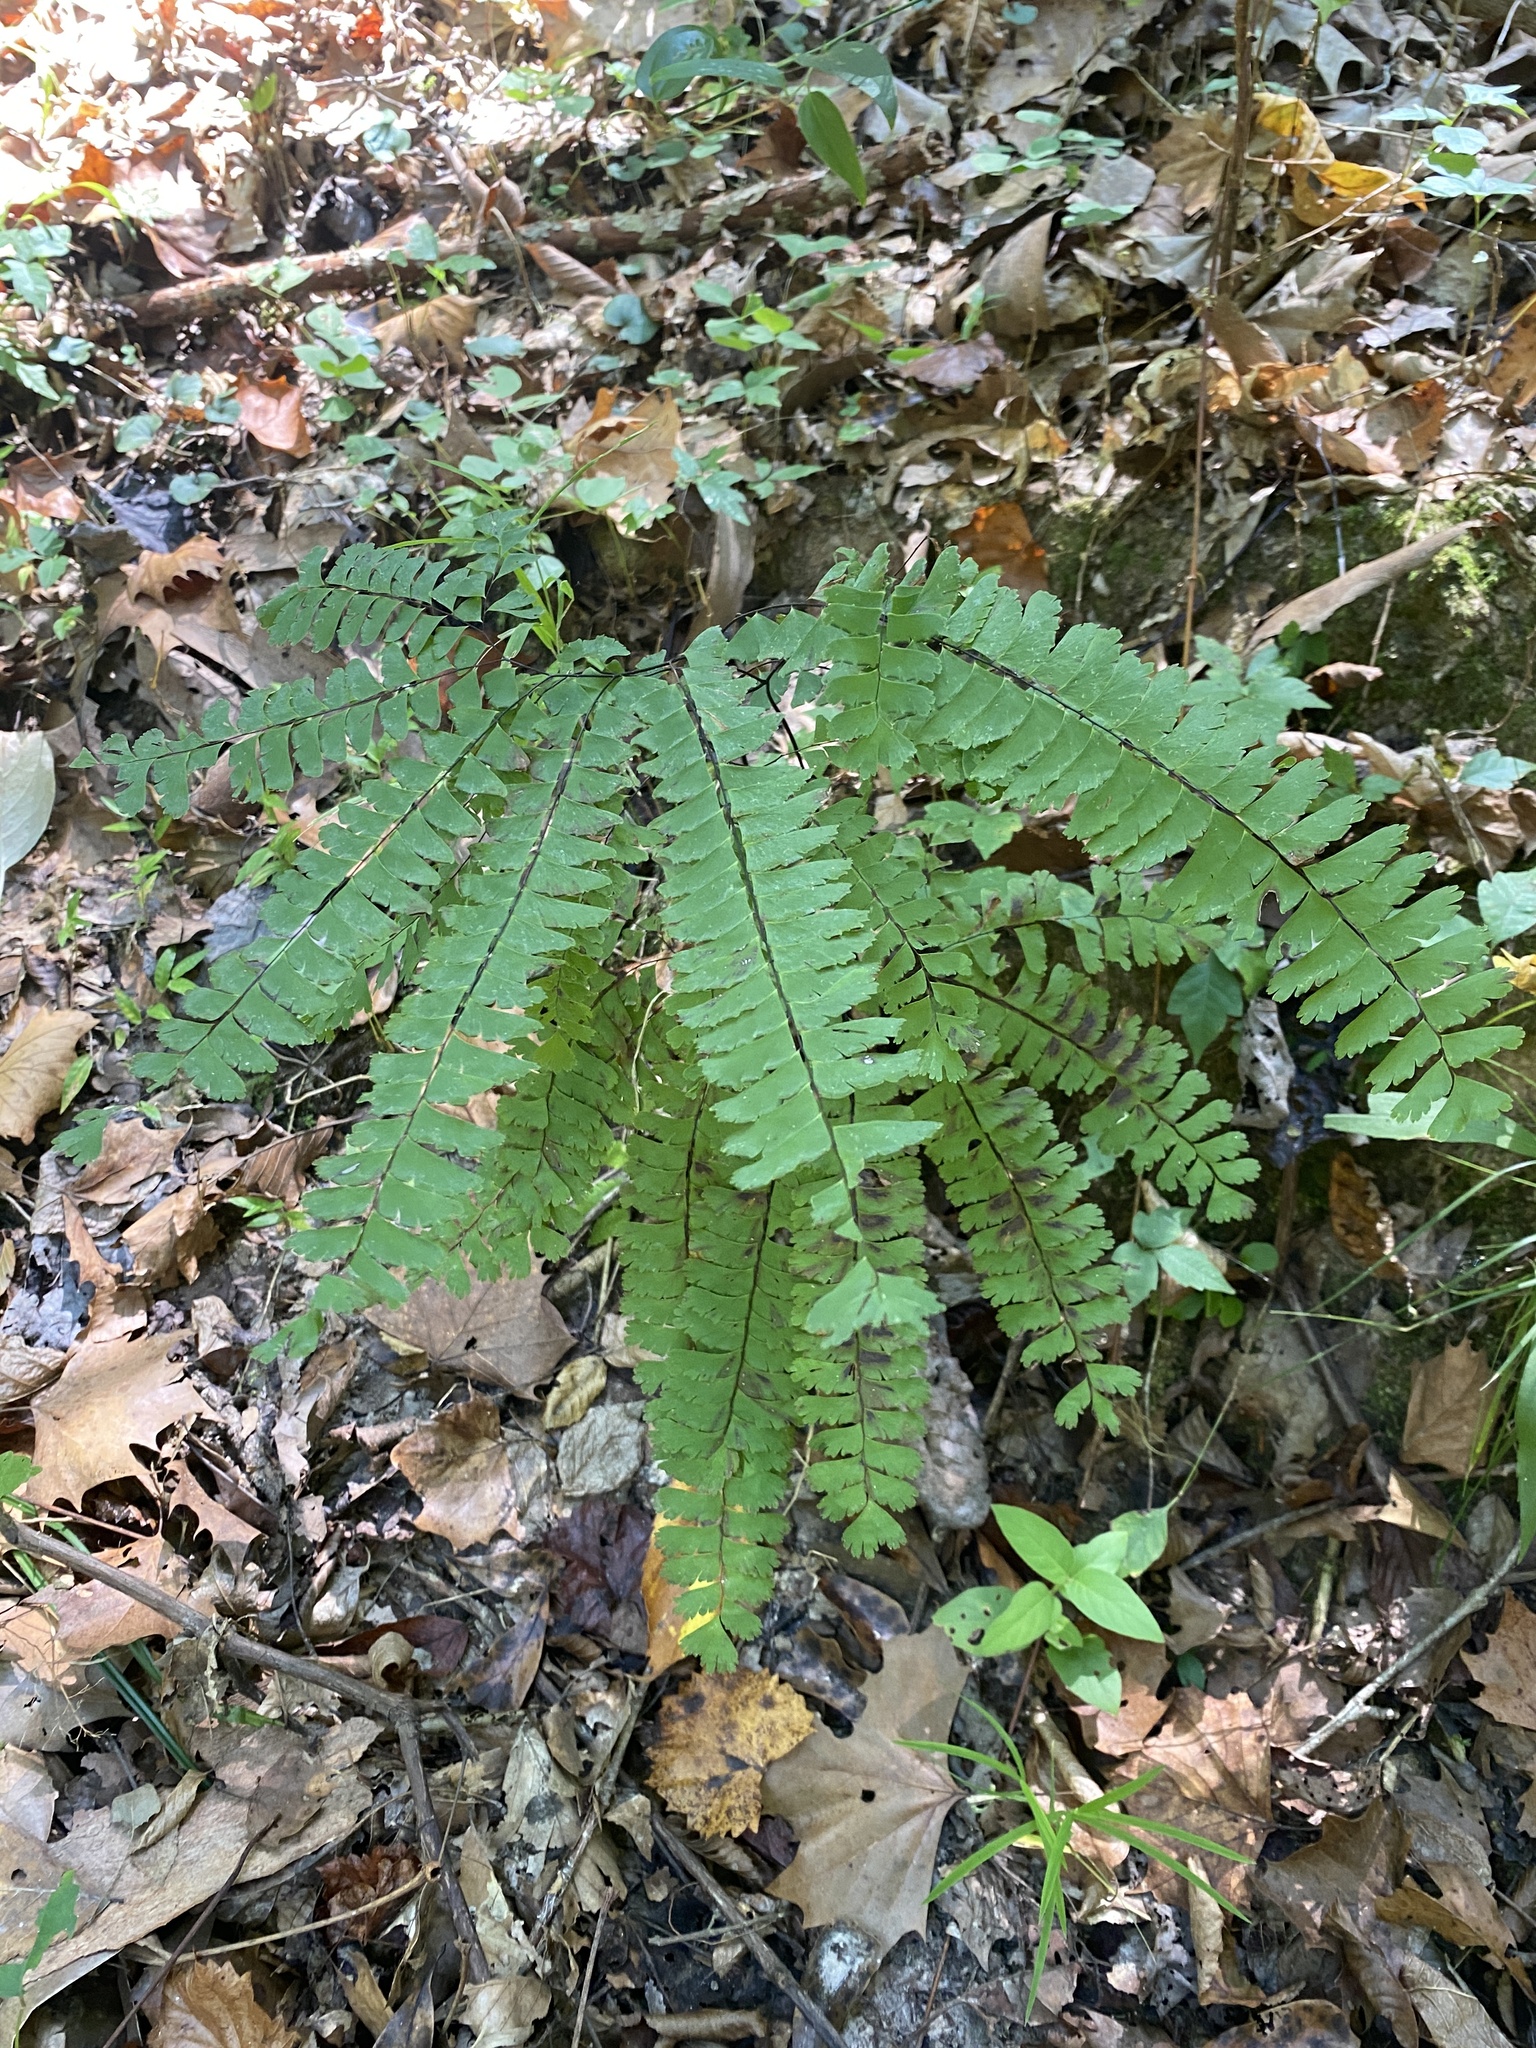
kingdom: Plantae
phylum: Tracheophyta
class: Polypodiopsida
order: Polypodiales
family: Pteridaceae
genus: Adiantum
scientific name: Adiantum pedatum
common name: Five-finger fern
